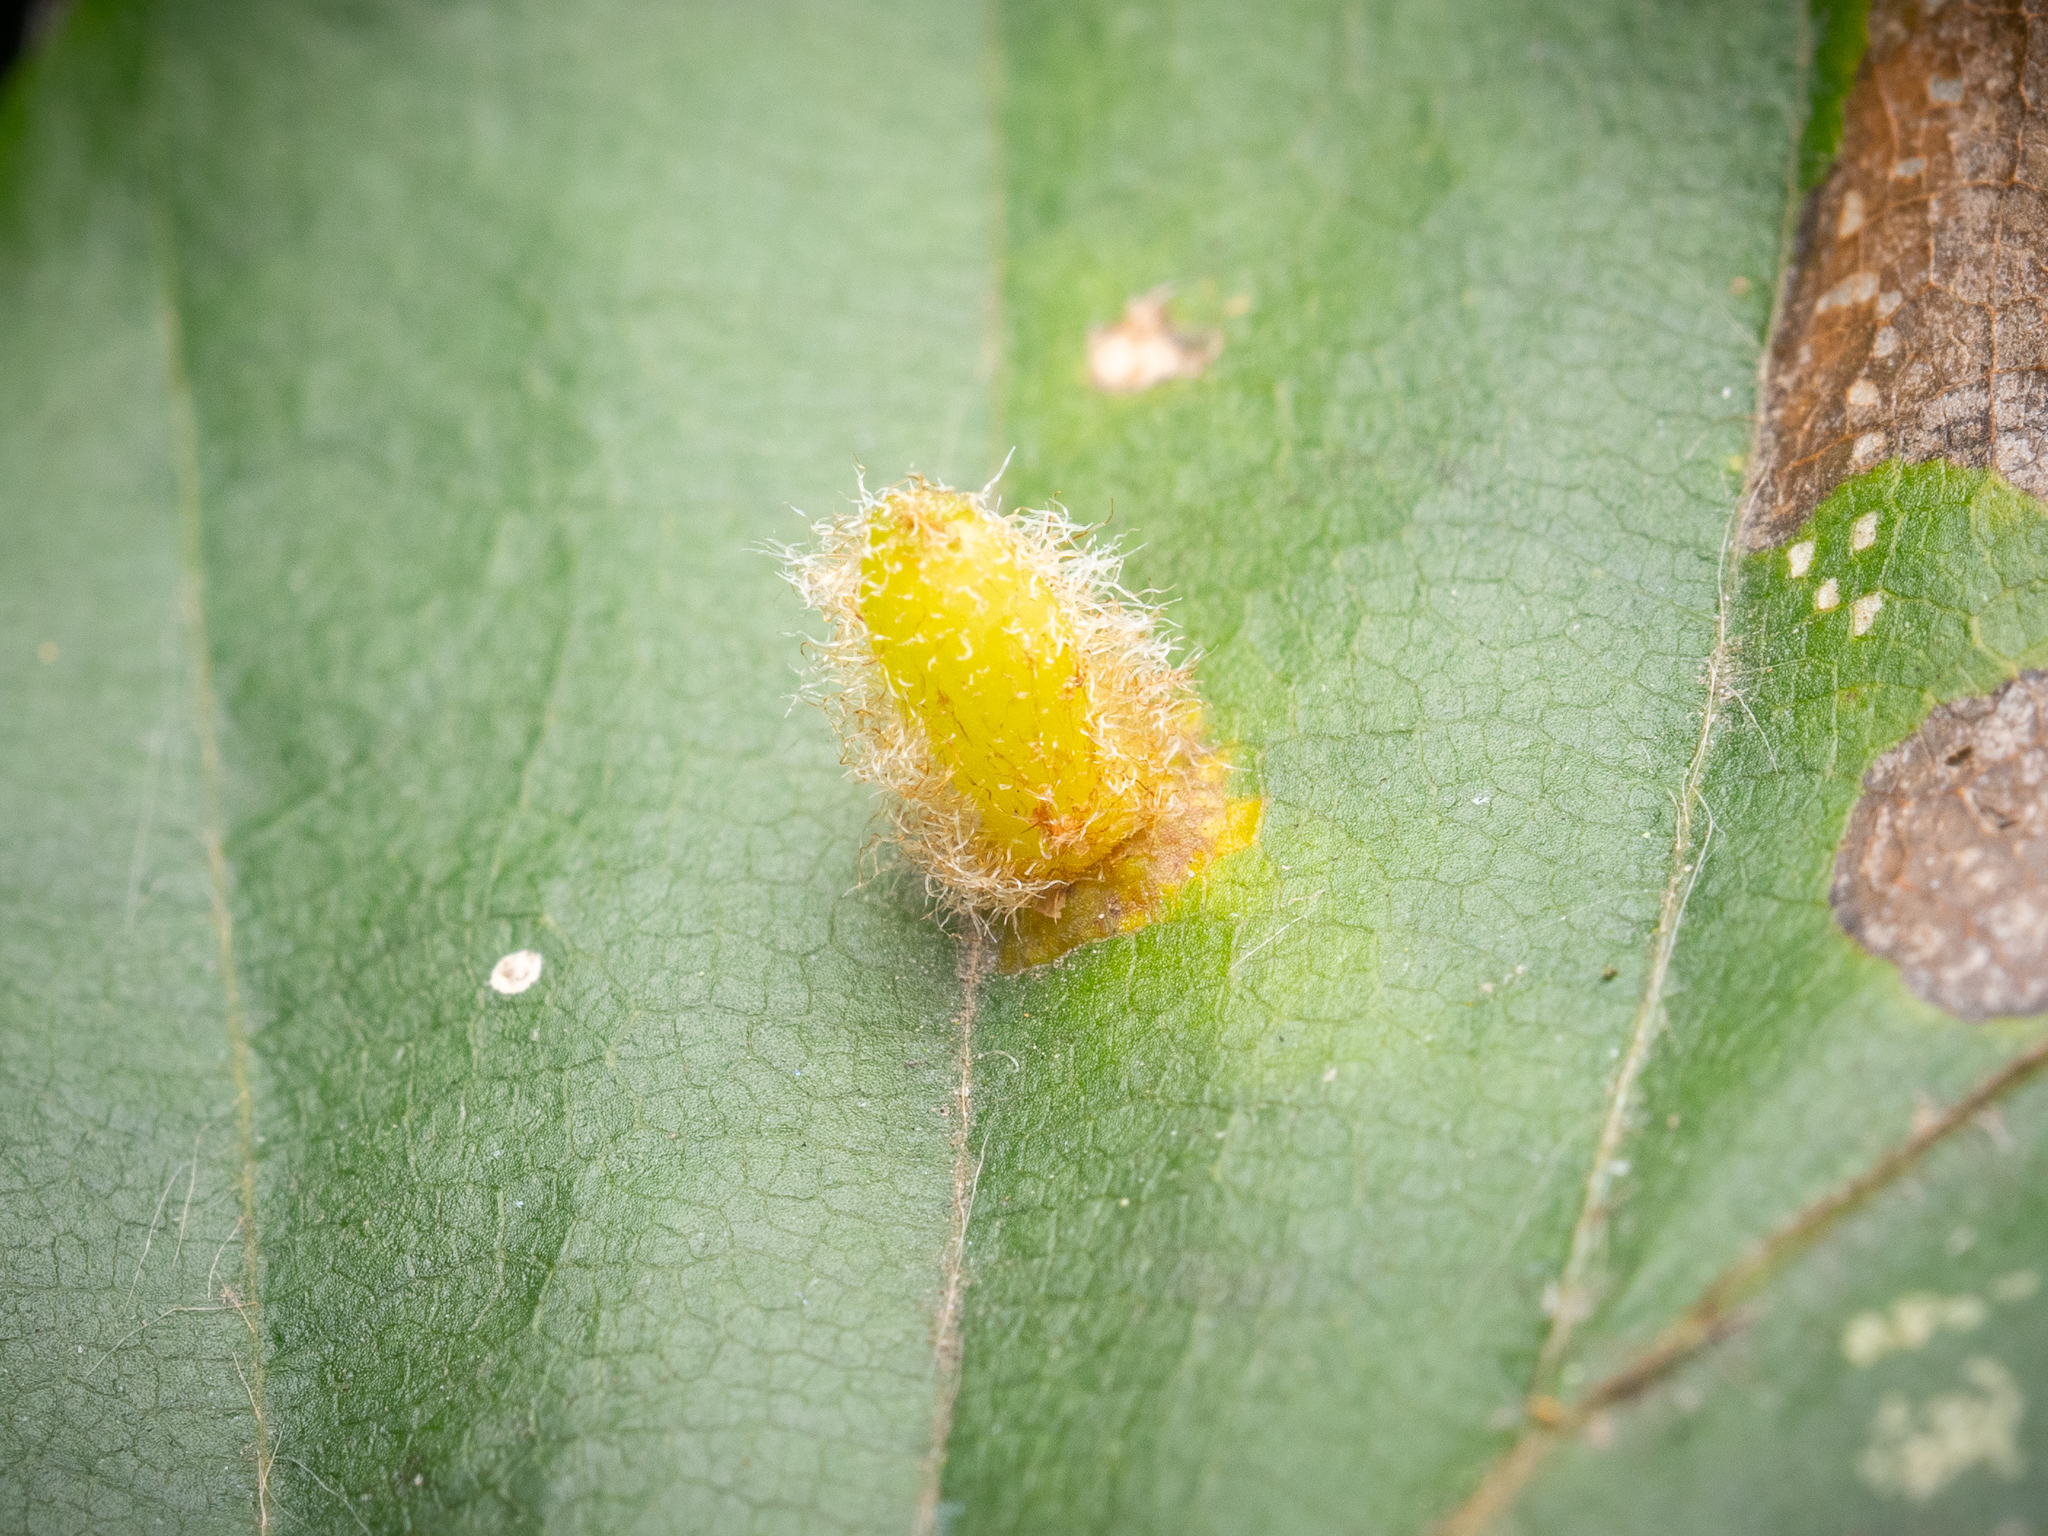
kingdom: Animalia
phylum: Arthropoda
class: Insecta
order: Diptera
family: Cecidomyiidae
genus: Hartigiola
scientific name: Hartigiola annulipes
